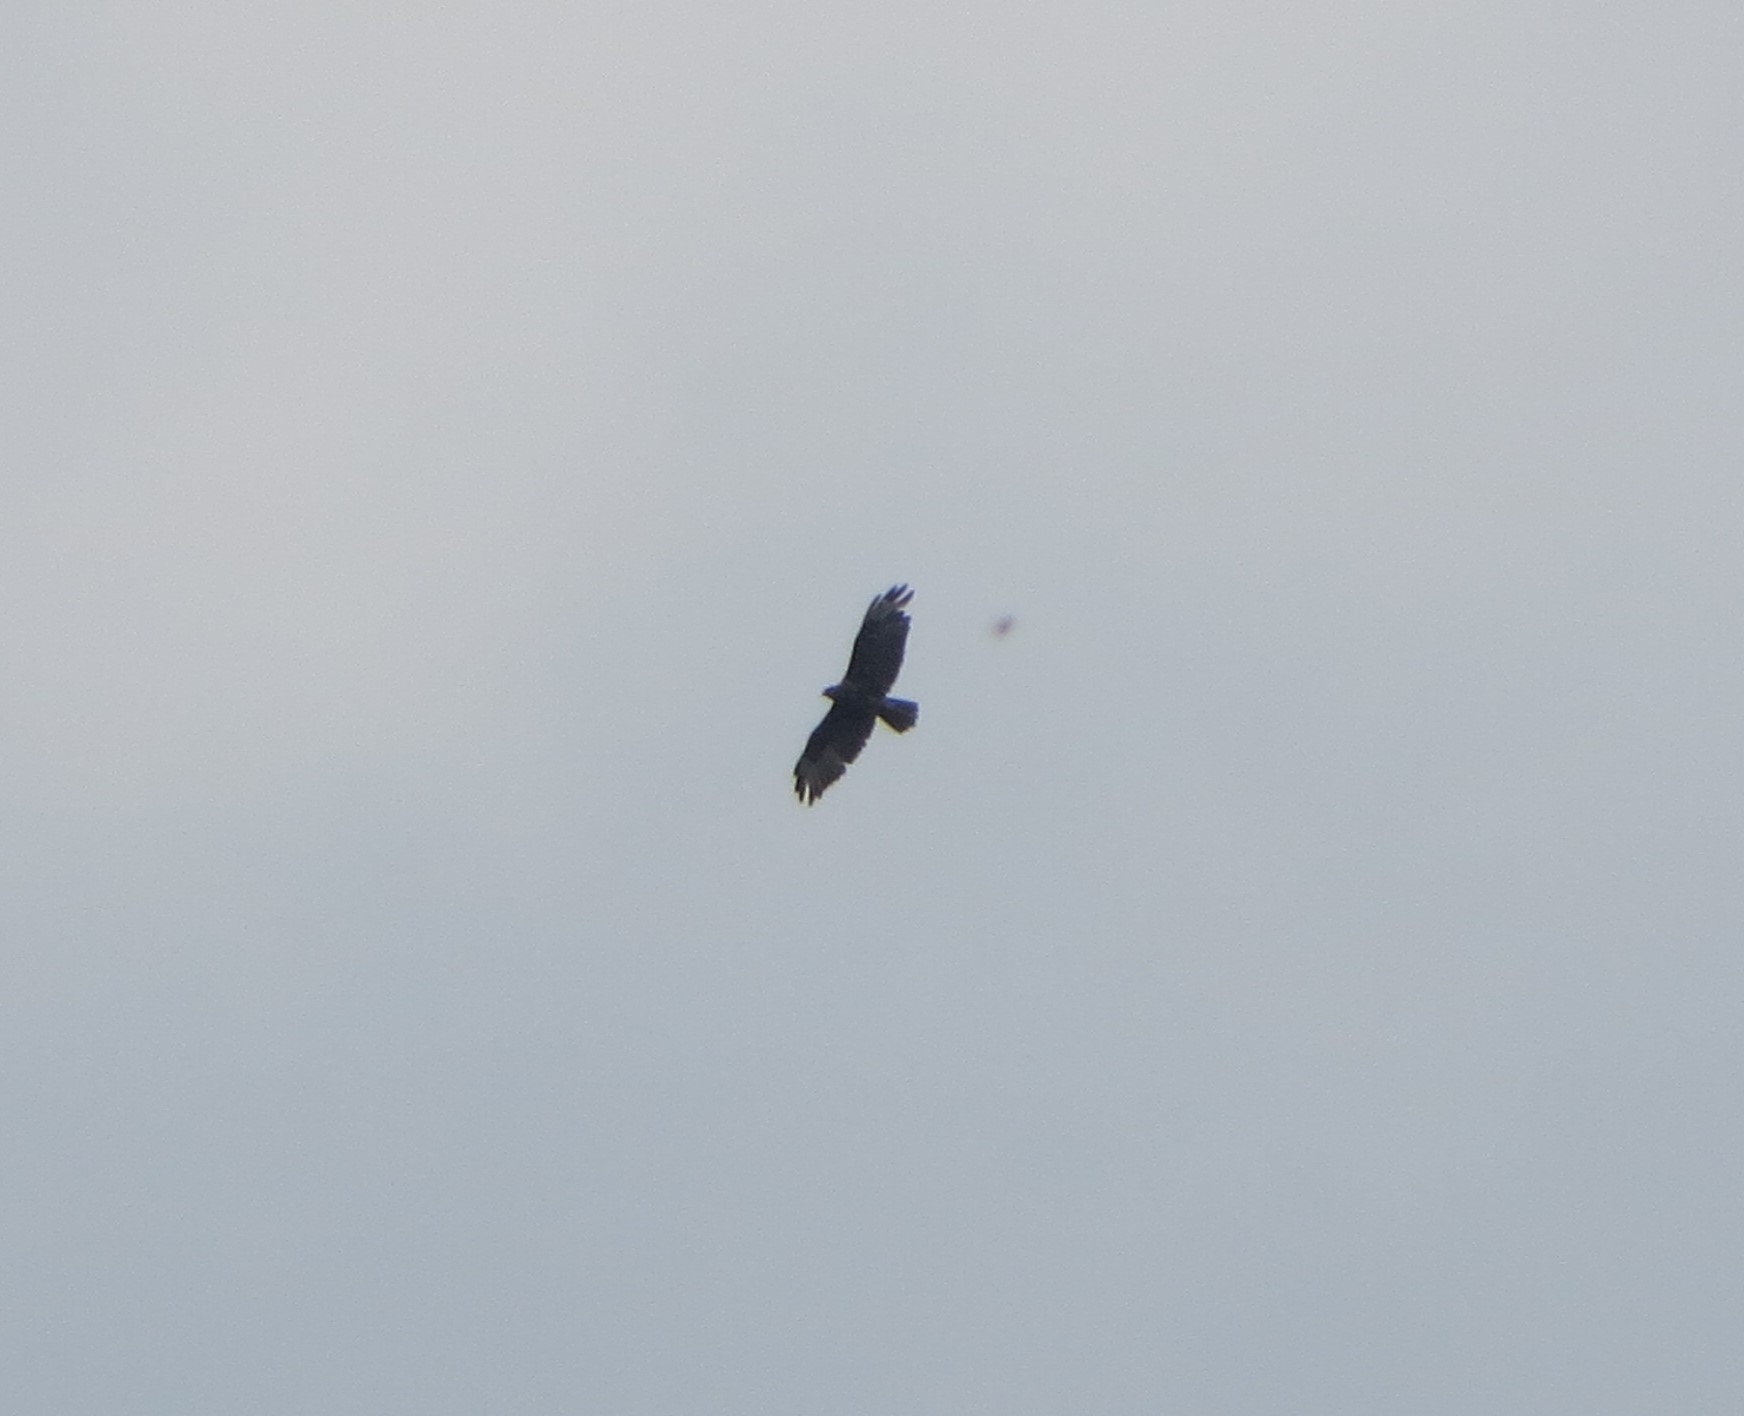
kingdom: Animalia
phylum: Chordata
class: Aves
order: Accipitriformes
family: Accipitridae
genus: Buteo
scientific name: Buteo buteo
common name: Common buzzard
